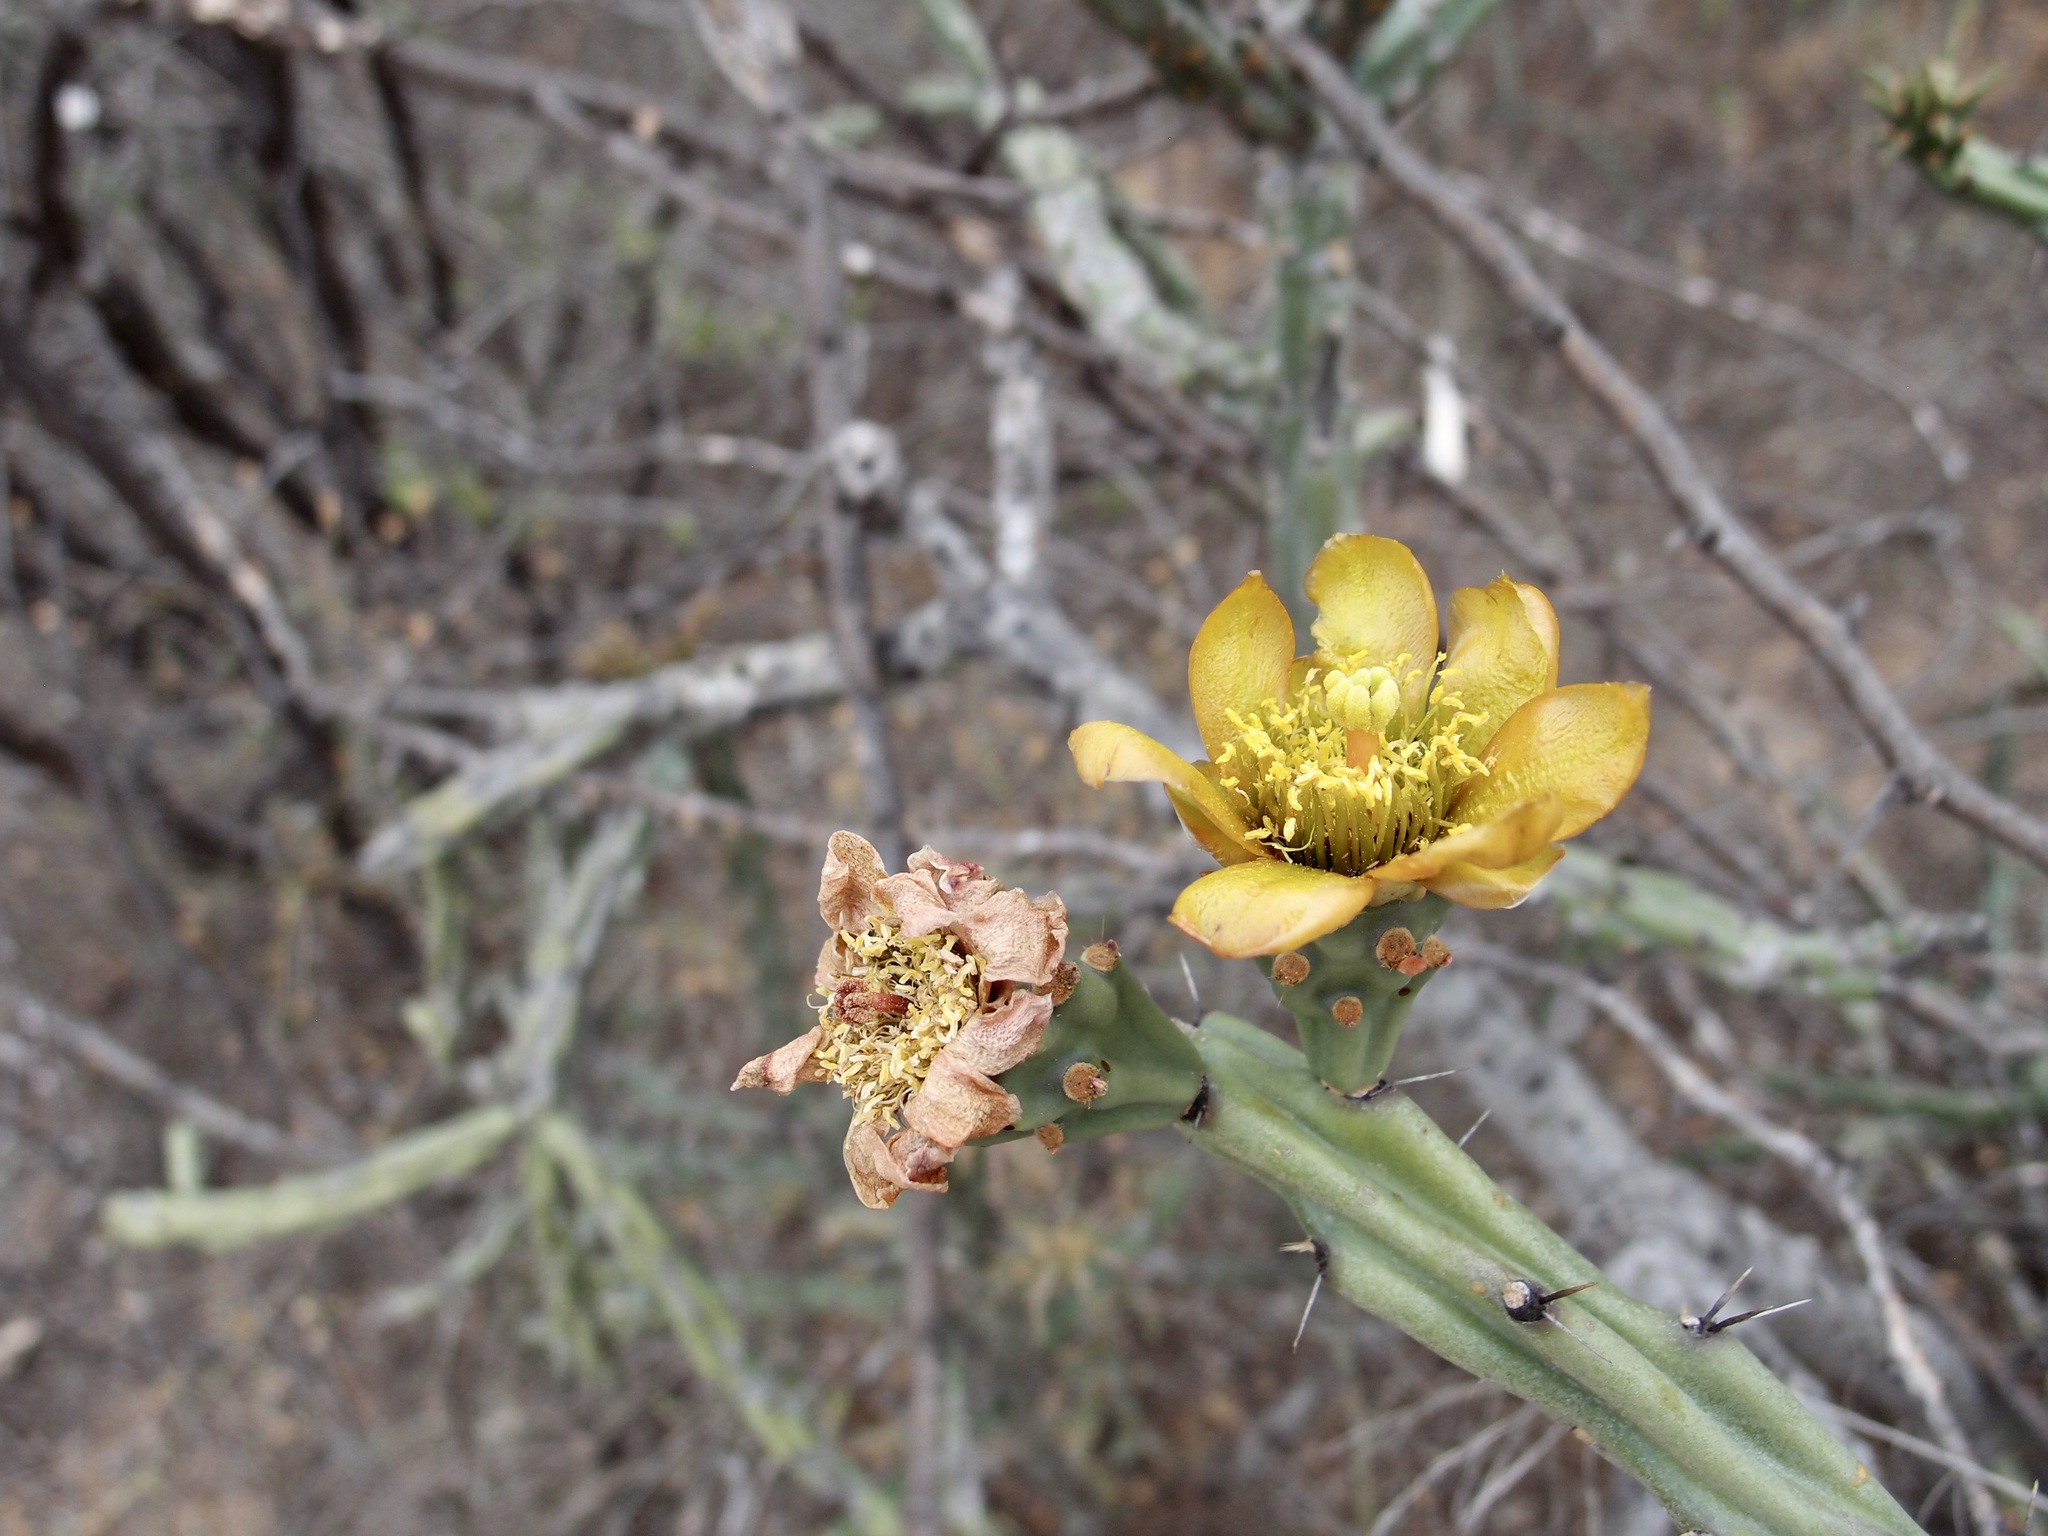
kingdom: Plantae
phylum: Tracheophyta
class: Magnoliopsida
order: Caryophyllales
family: Cactaceae
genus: Cylindropuntia
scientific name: Cylindropuntia thurberi
